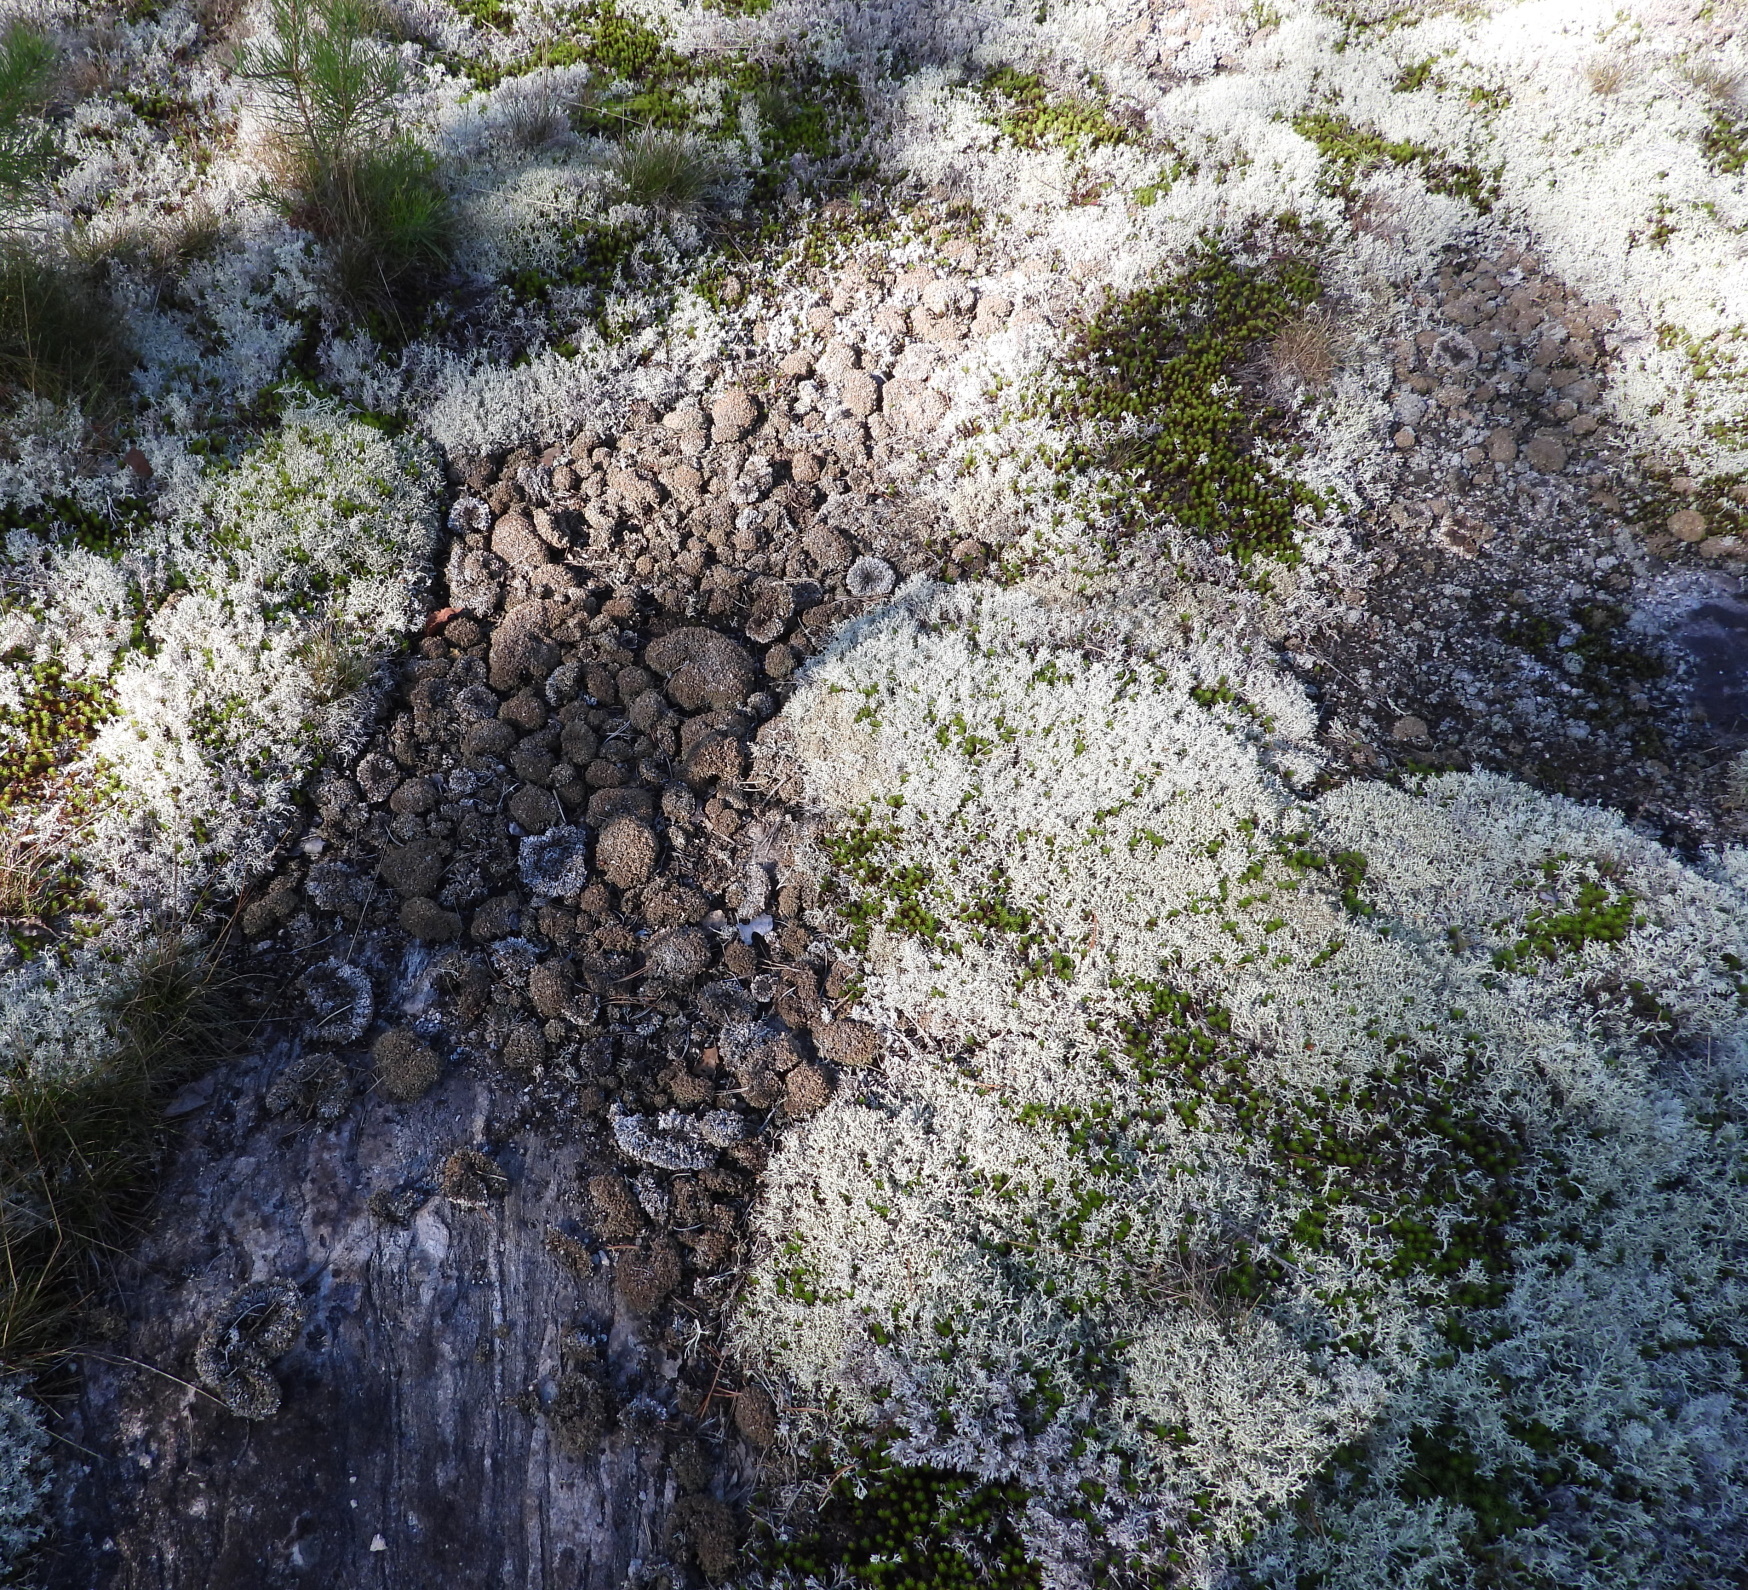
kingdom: Fungi
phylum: Ascomycota
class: Lecanoromycetes
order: Lecanorales
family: Cladoniaceae
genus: Cladonia
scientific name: Cladonia strepsilis
